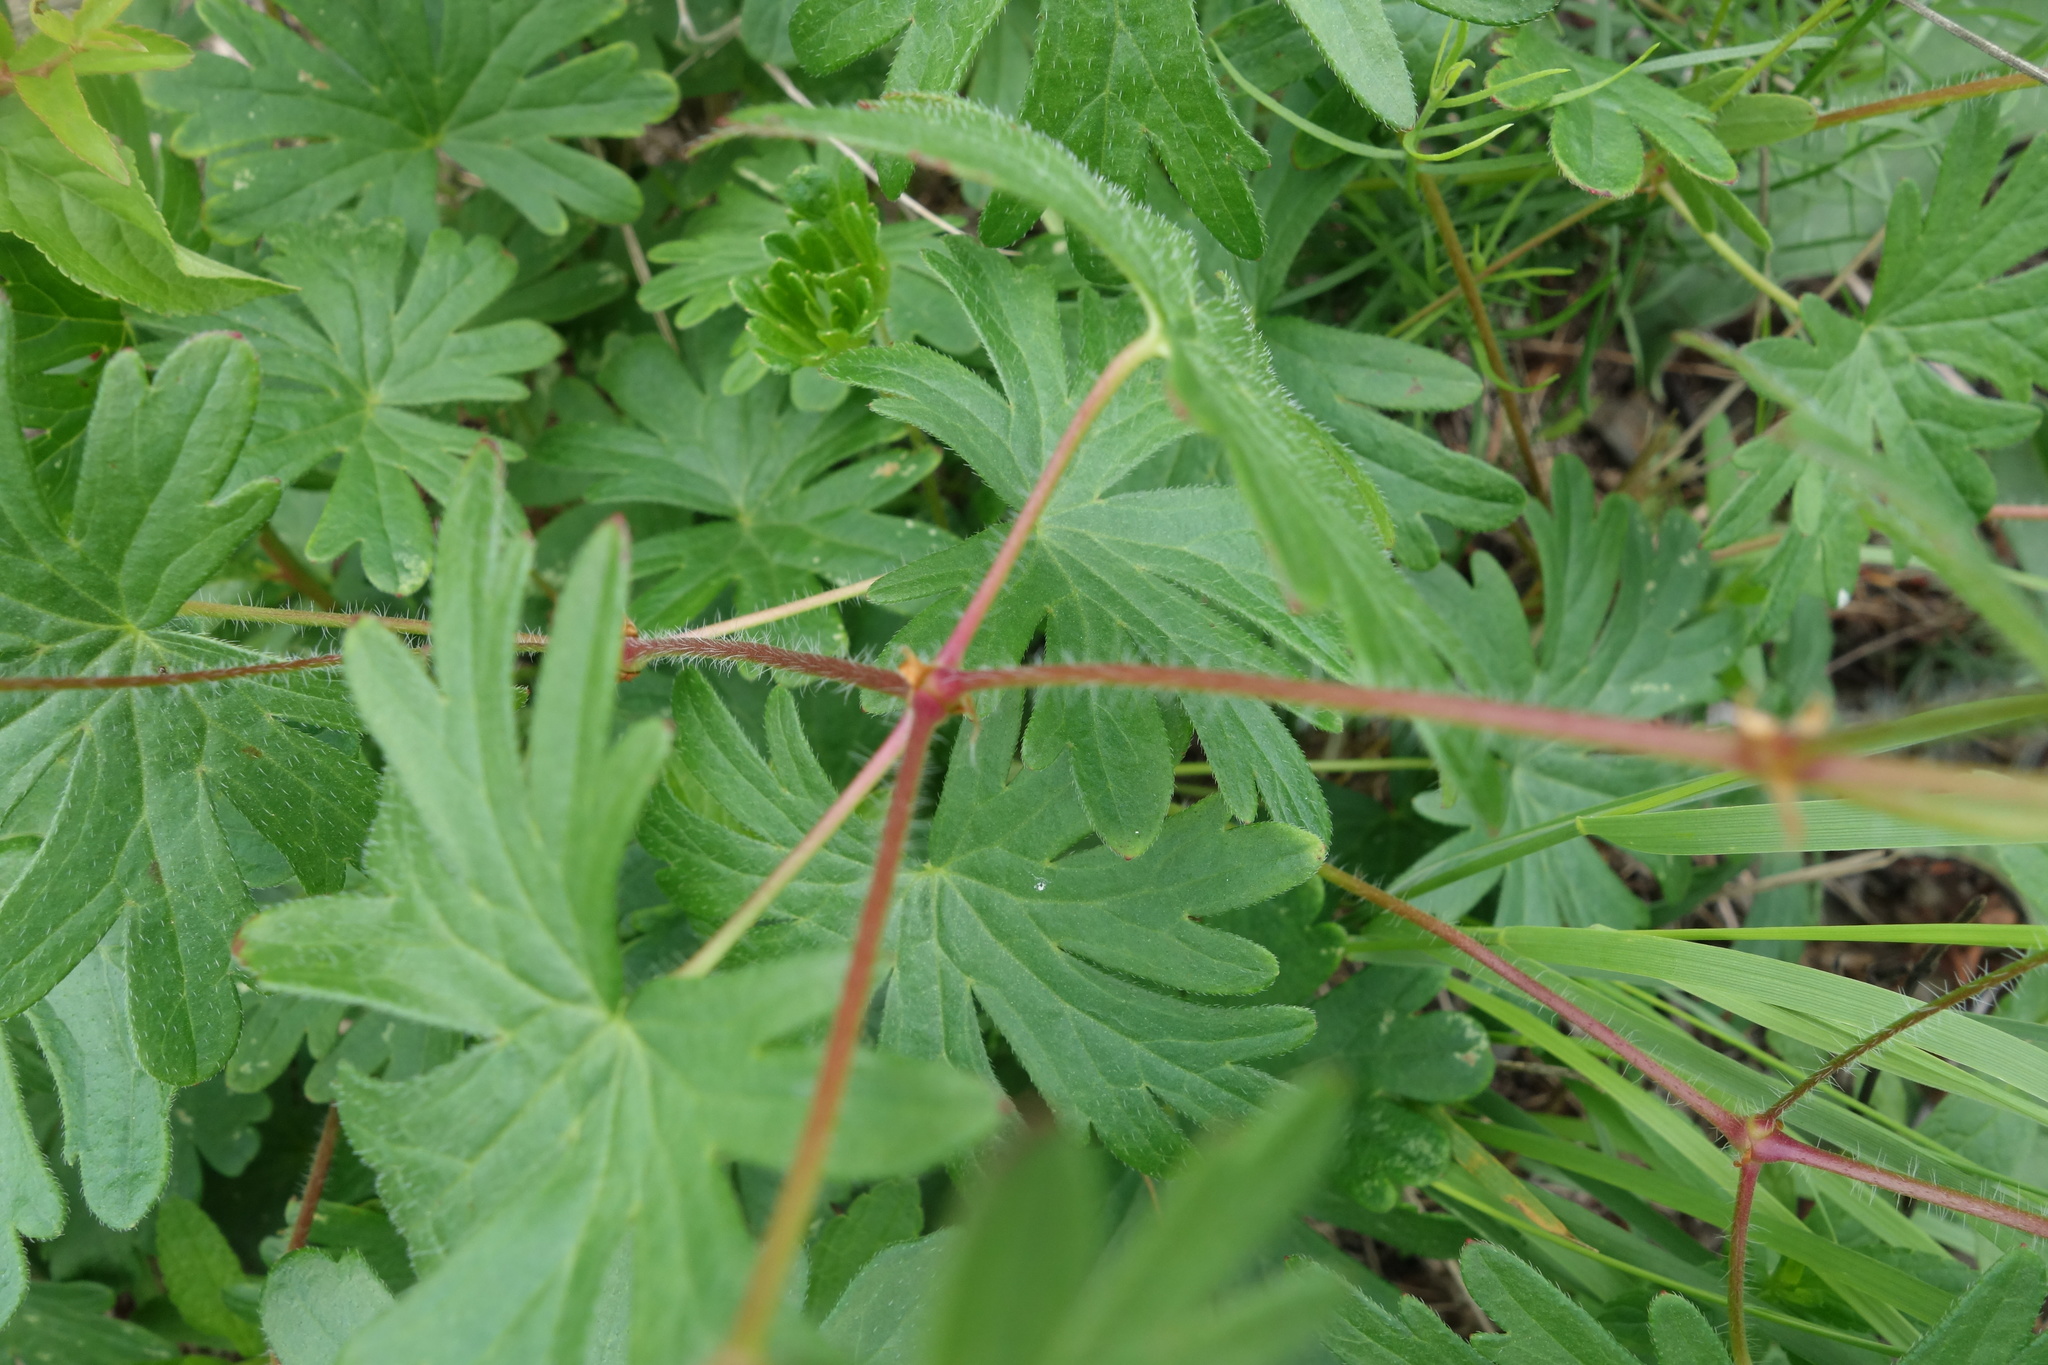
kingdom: Plantae
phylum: Tracheophyta
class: Magnoliopsida
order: Geraniales
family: Geraniaceae
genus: Geranium
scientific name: Geranium sanguineum
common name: Bloody crane's-bill
